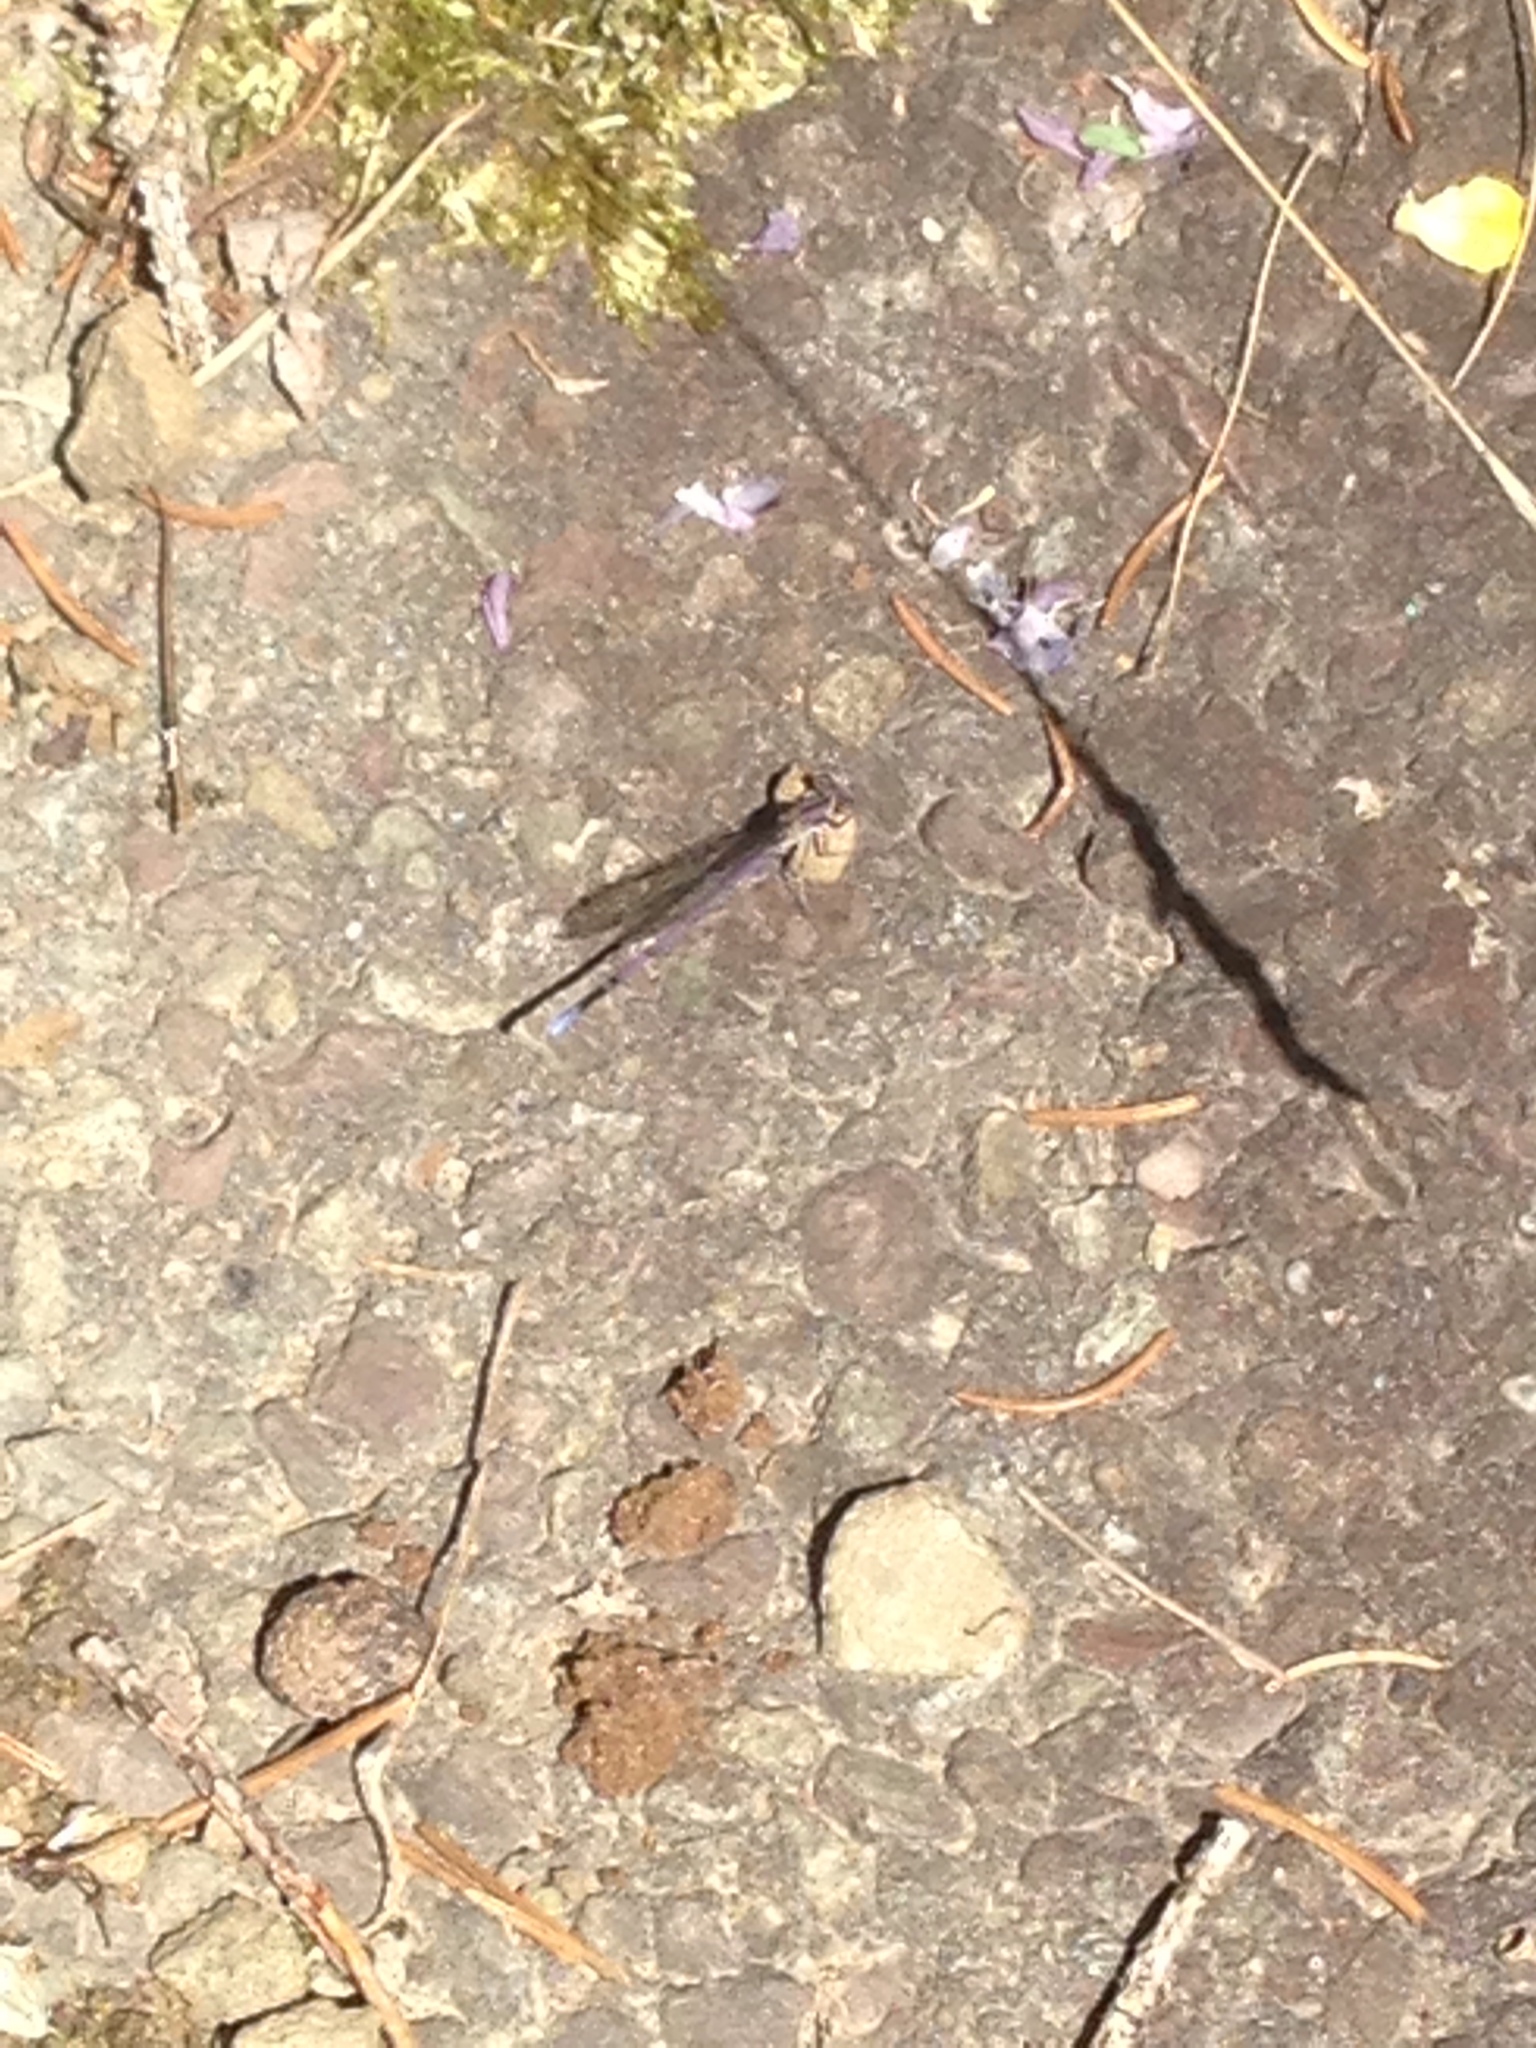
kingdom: Animalia
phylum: Arthropoda
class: Insecta
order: Odonata
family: Coenagrionidae
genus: Argia
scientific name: Argia fumipennis
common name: Variable dancer
